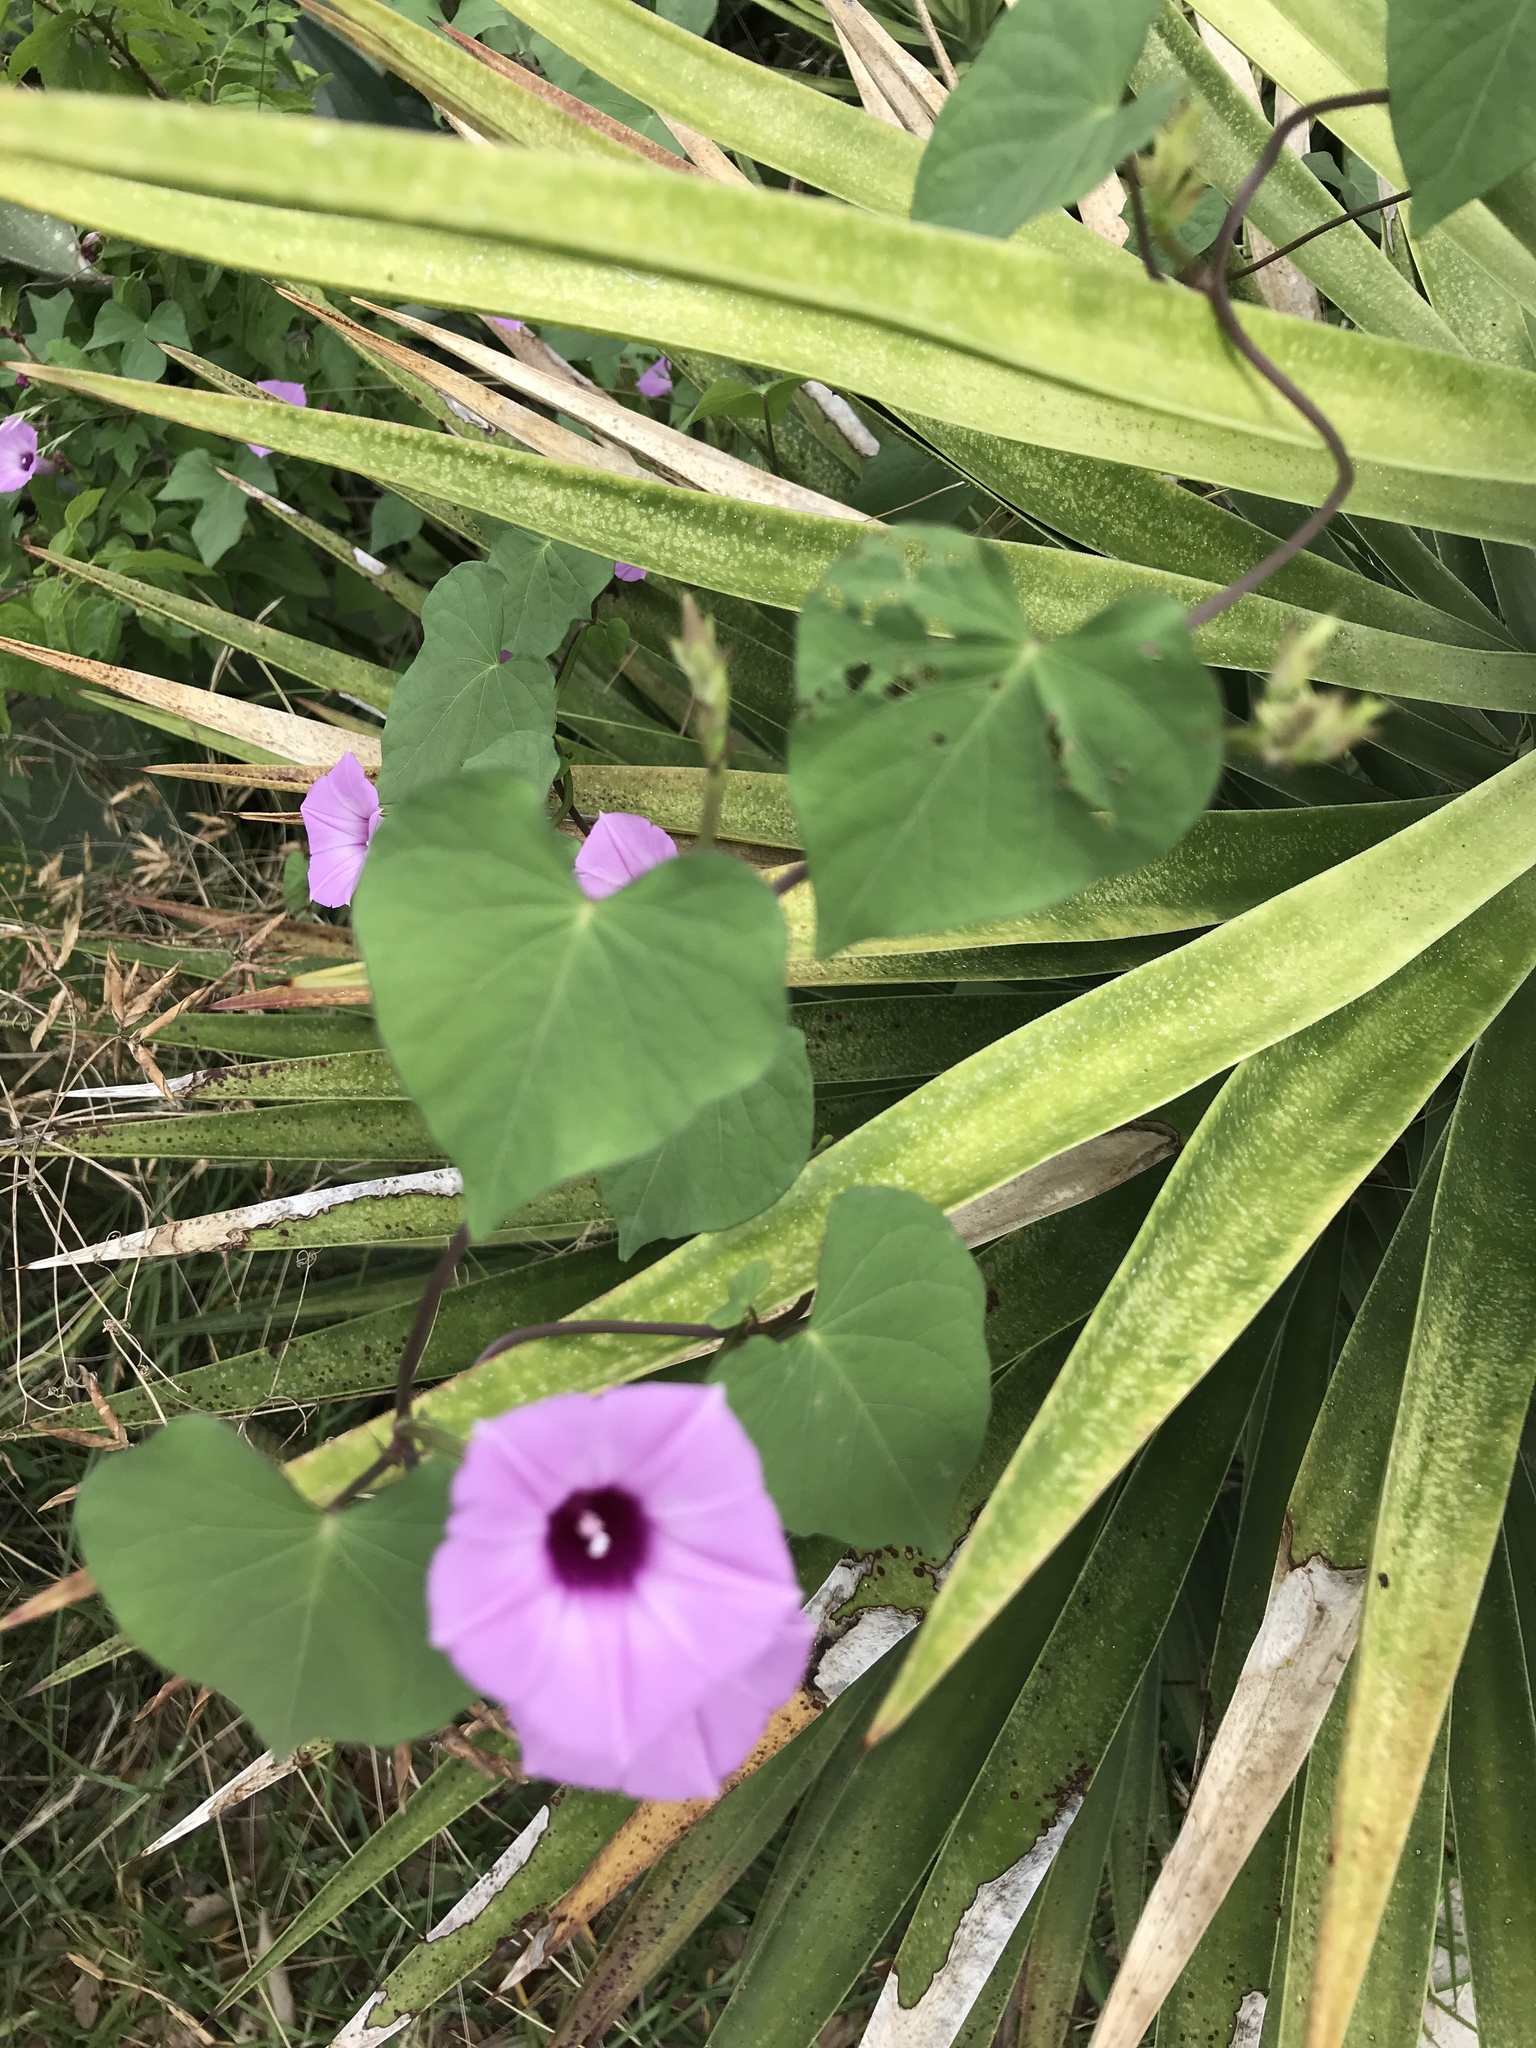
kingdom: Plantae
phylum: Tracheophyta
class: Magnoliopsida
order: Solanales
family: Convolvulaceae
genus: Ipomoea
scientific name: Ipomoea cordatotriloba
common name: Cotton morning glory
